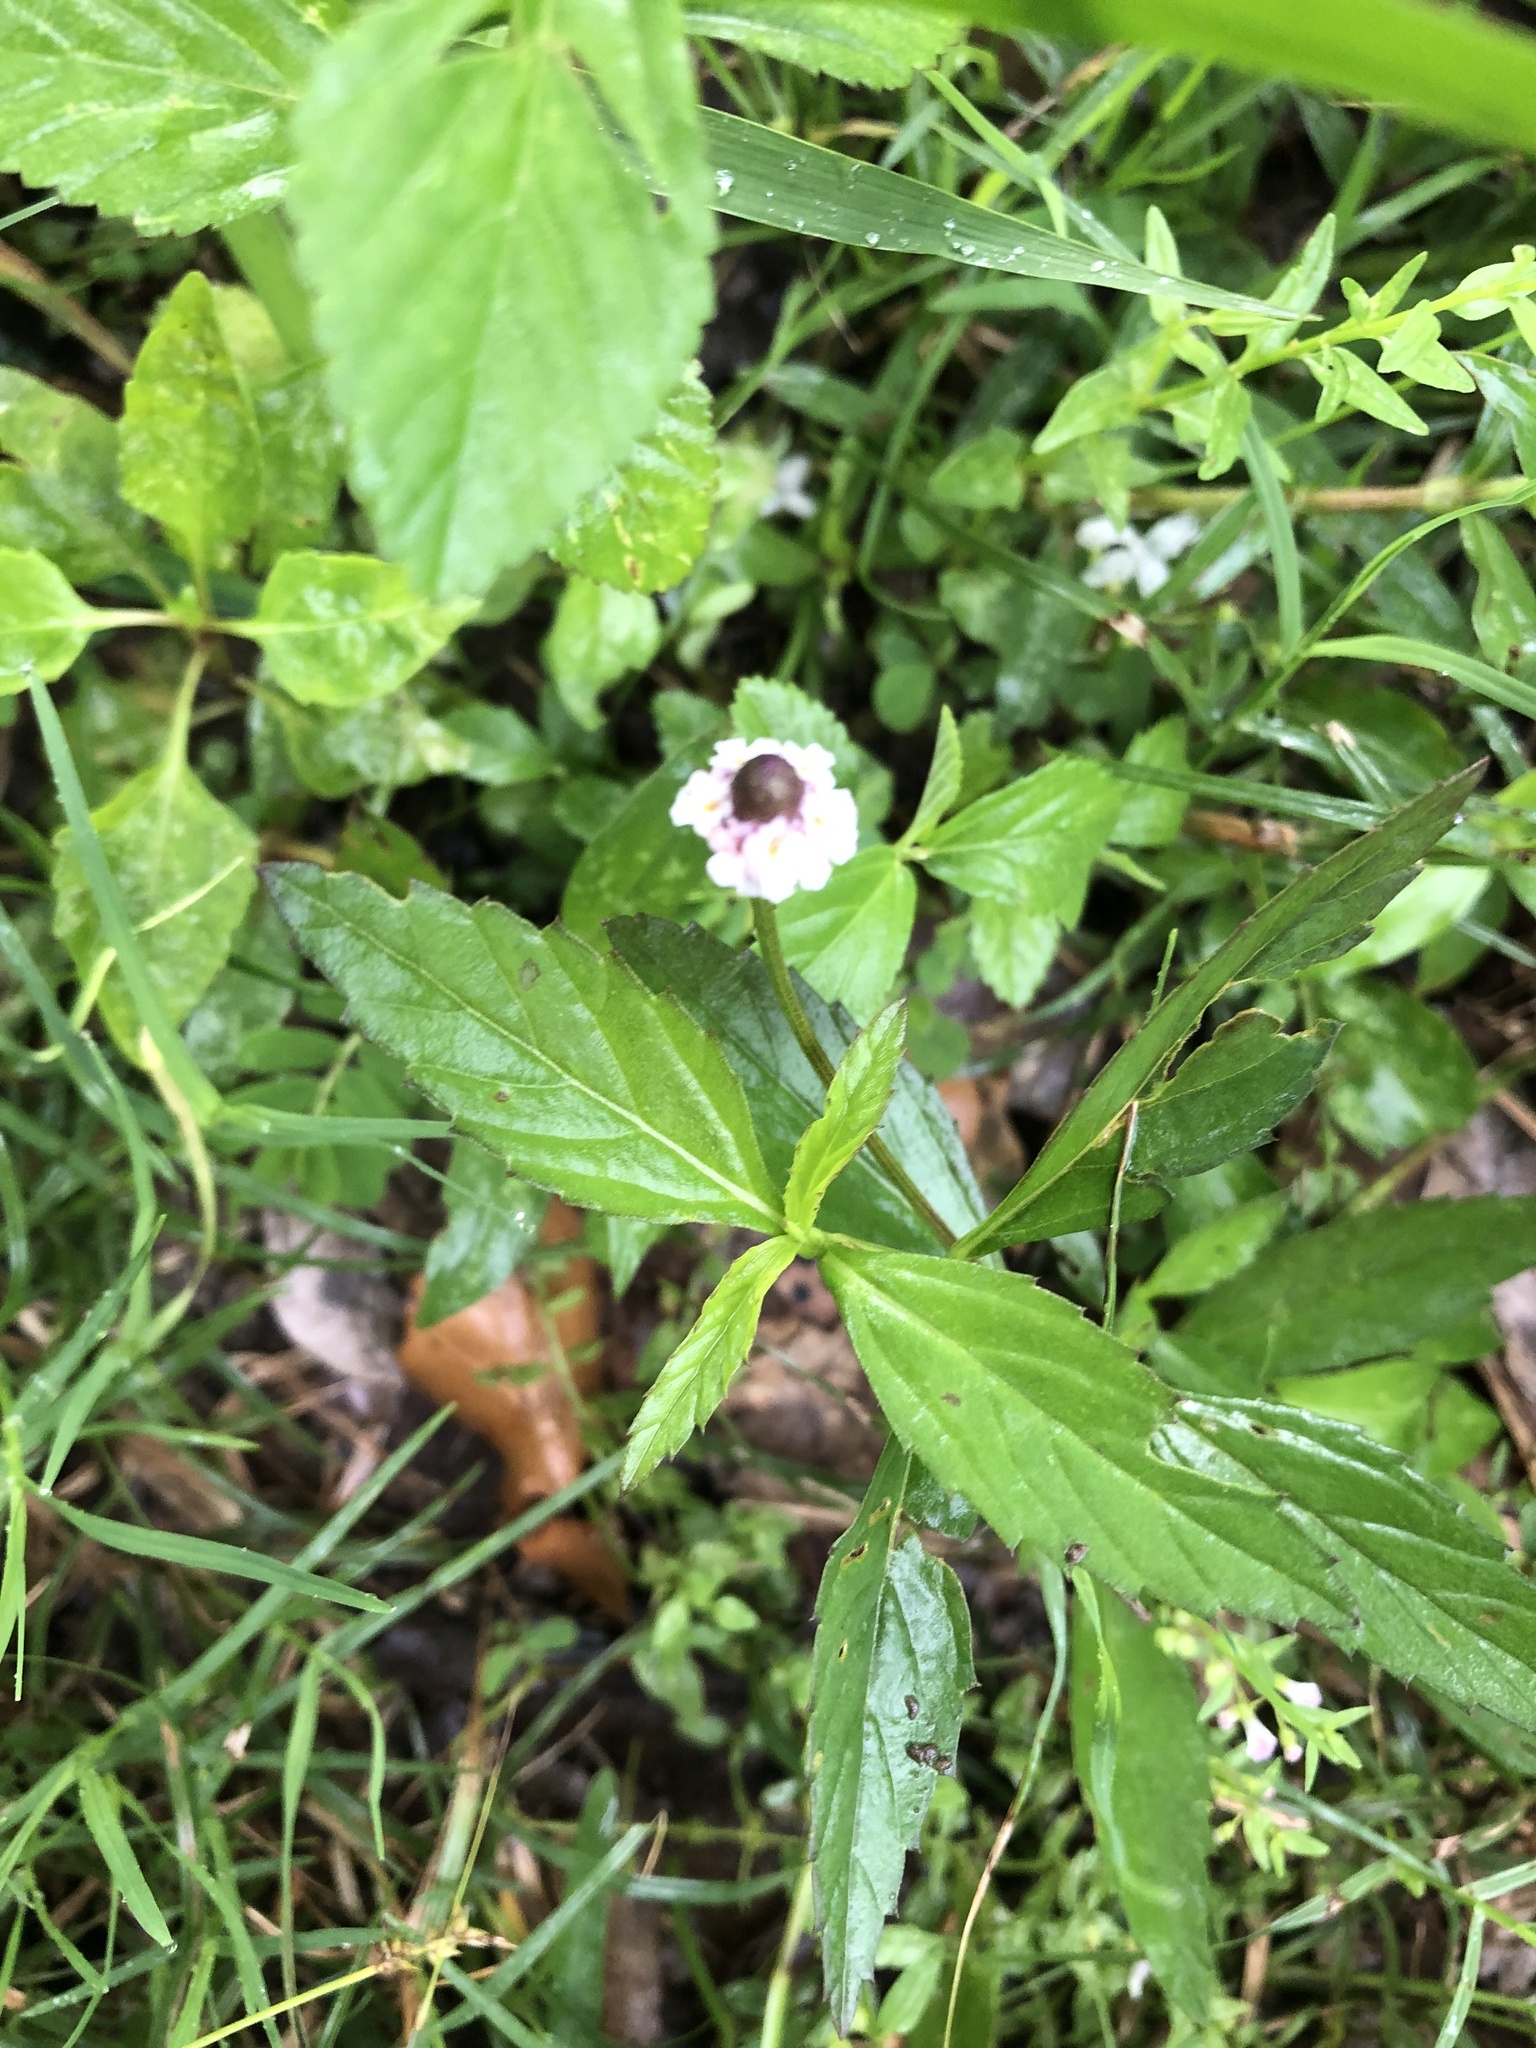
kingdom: Plantae
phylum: Tracheophyta
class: Magnoliopsida
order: Lamiales
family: Verbenaceae
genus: Phyla
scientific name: Phyla lanceolata
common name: Northern fogfruit
